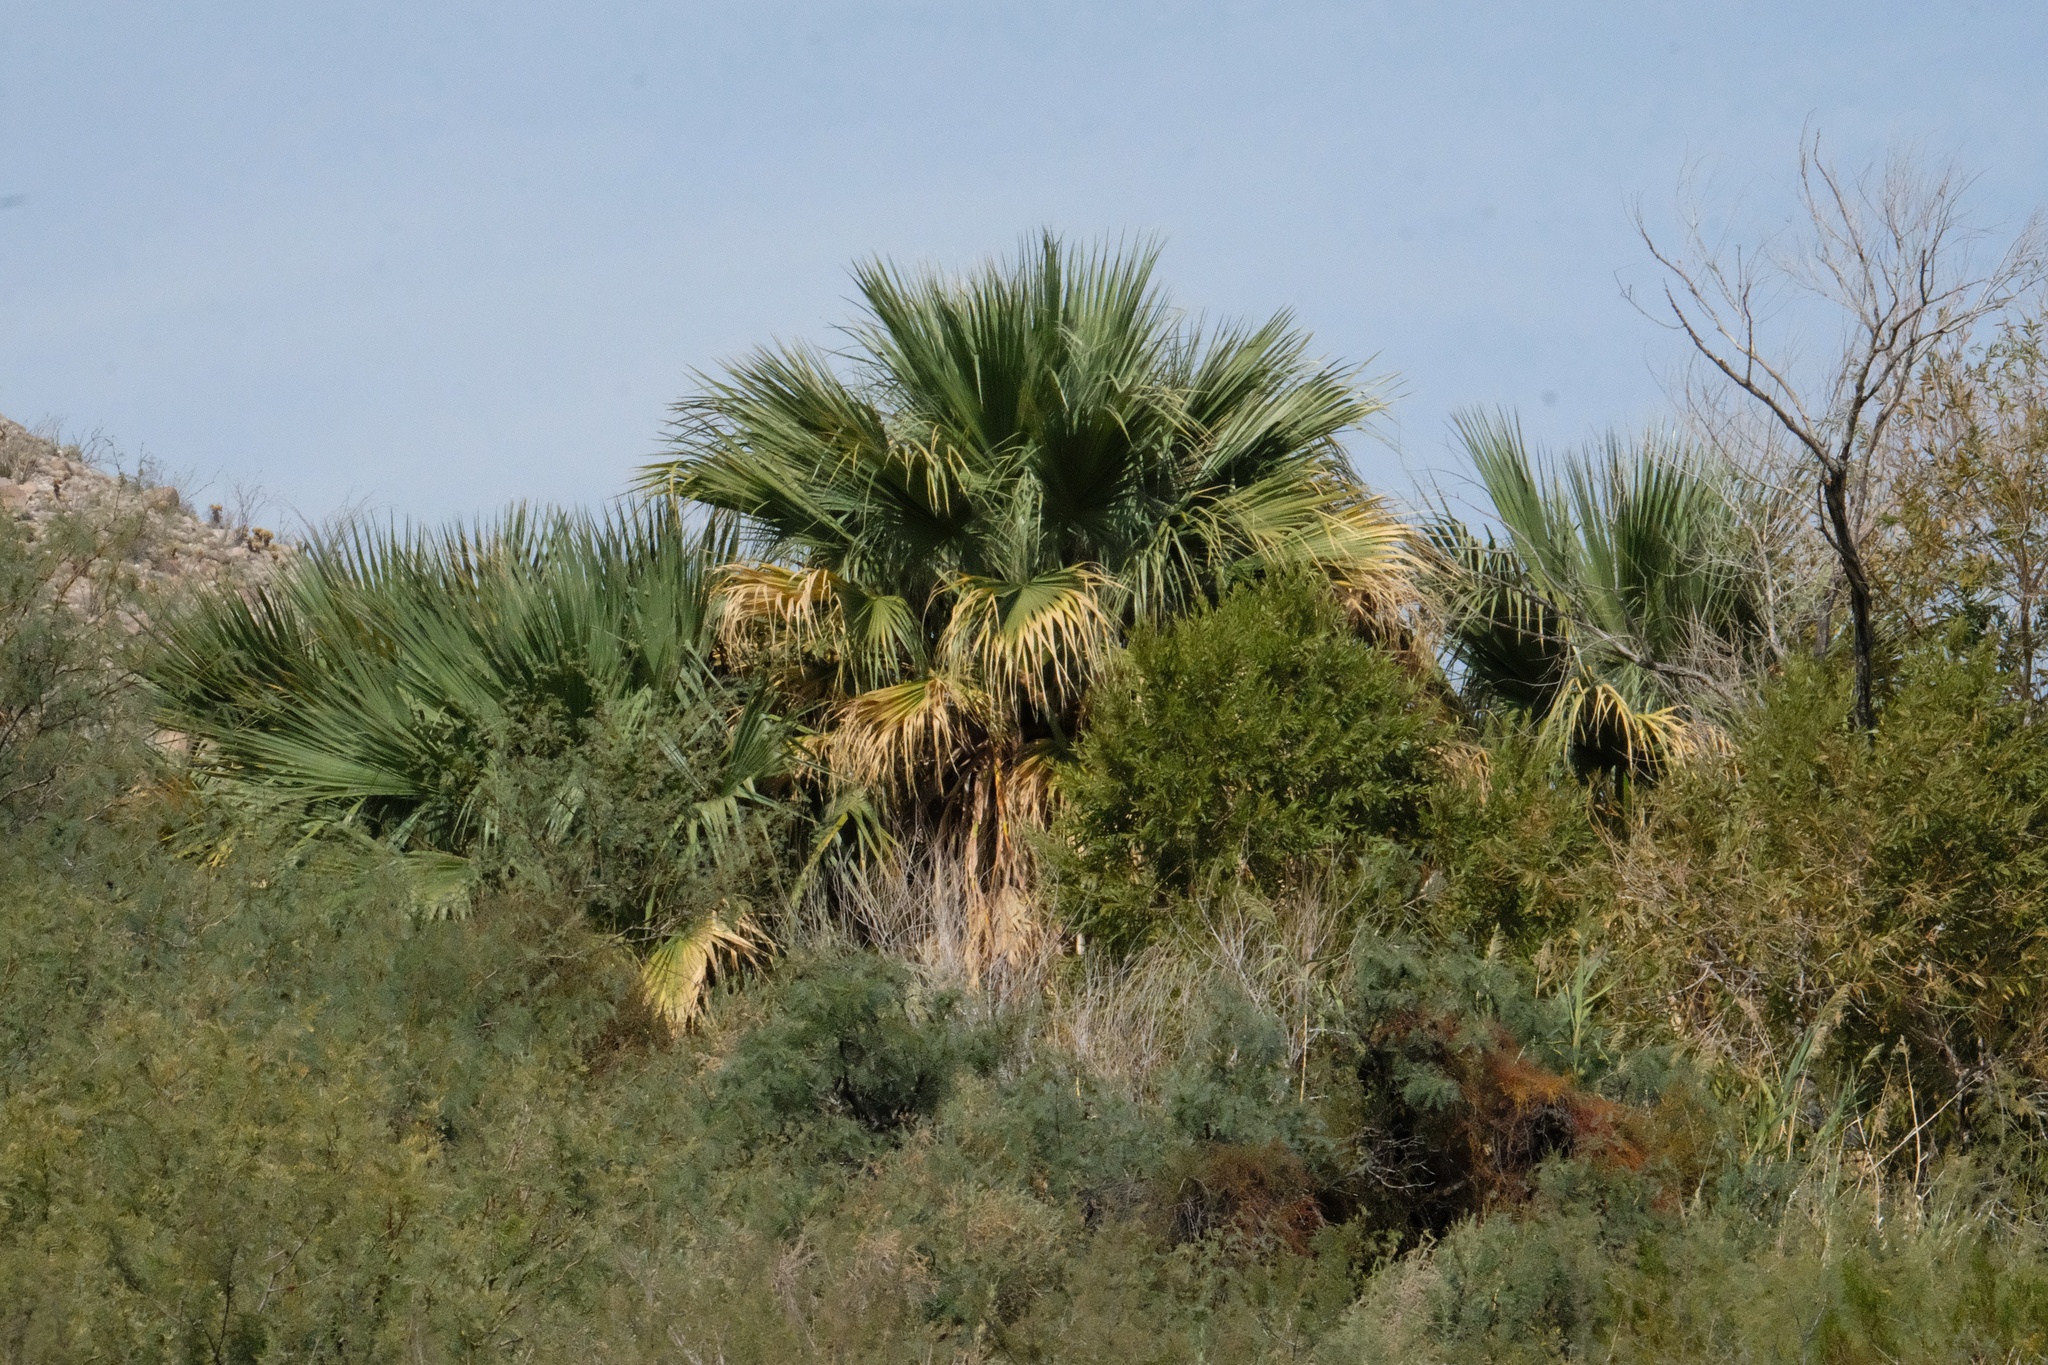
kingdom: Plantae
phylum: Tracheophyta
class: Liliopsida
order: Arecales
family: Arecaceae
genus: Washingtonia
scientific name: Washingtonia filifera
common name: California fan palm
